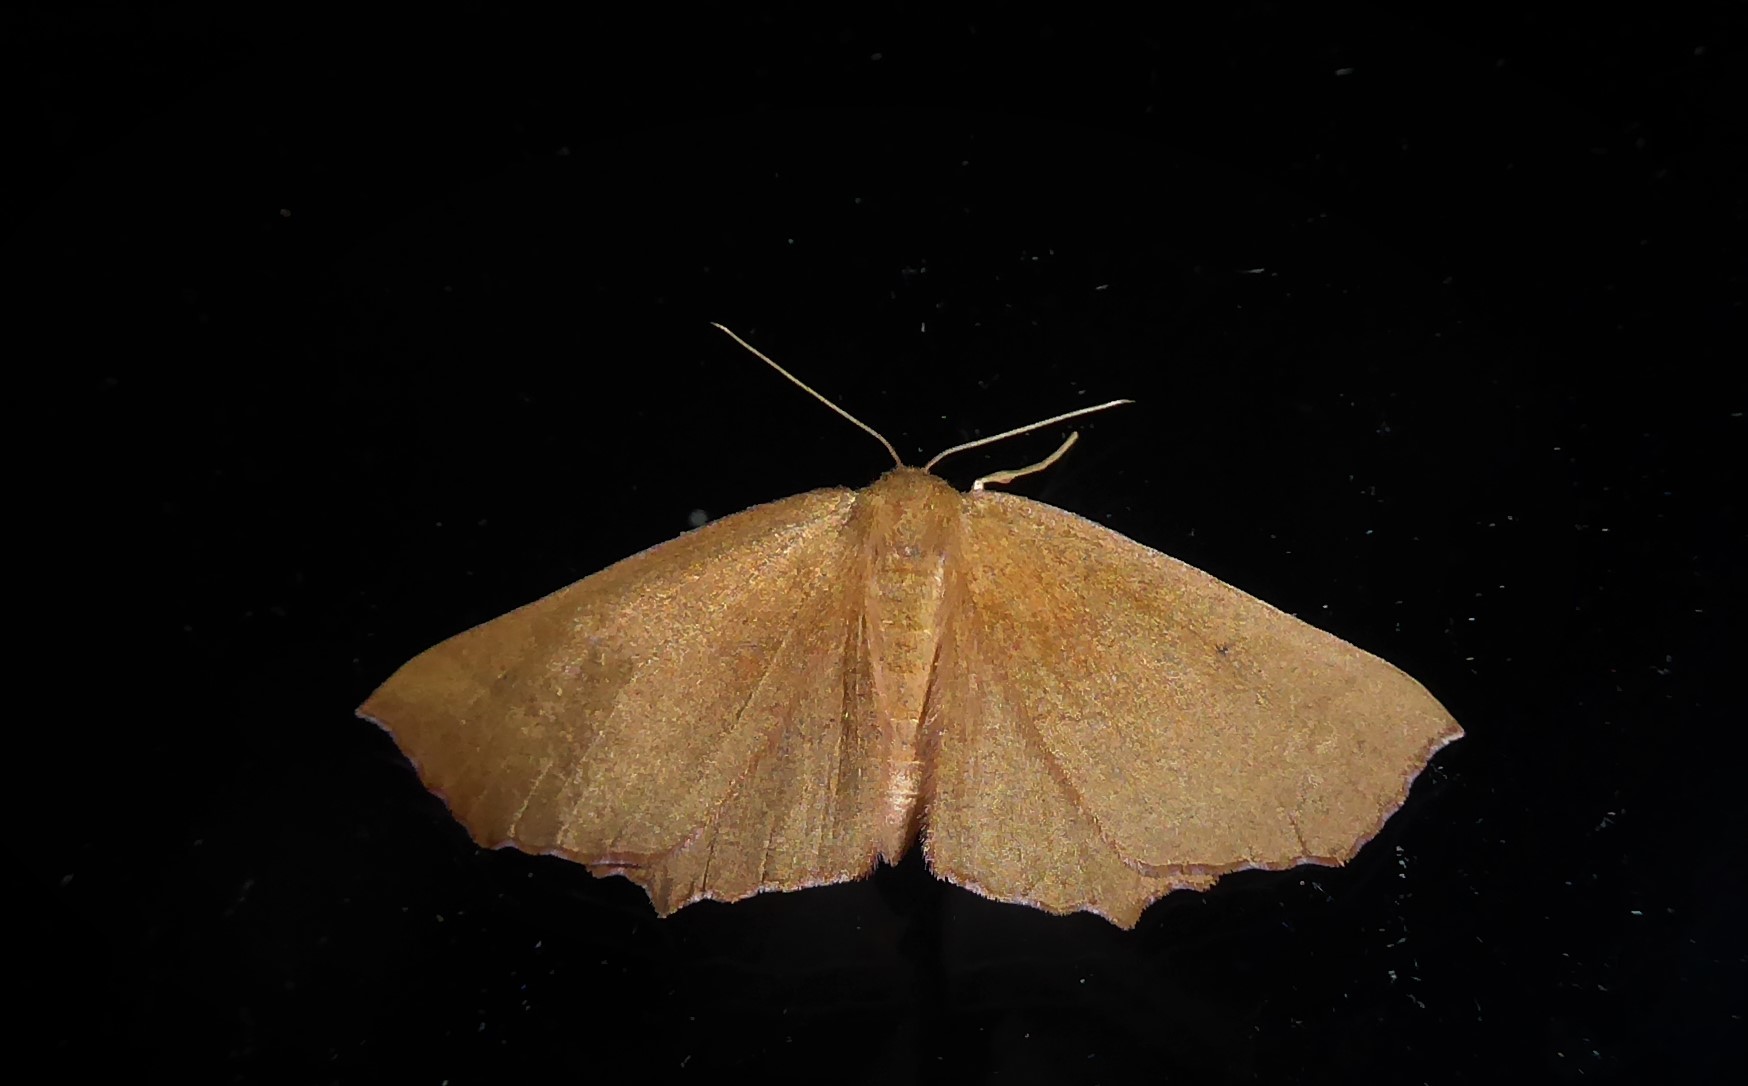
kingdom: Animalia
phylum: Arthropoda
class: Insecta
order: Lepidoptera
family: Geometridae
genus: Xyridacma
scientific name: Xyridacma ustaria
